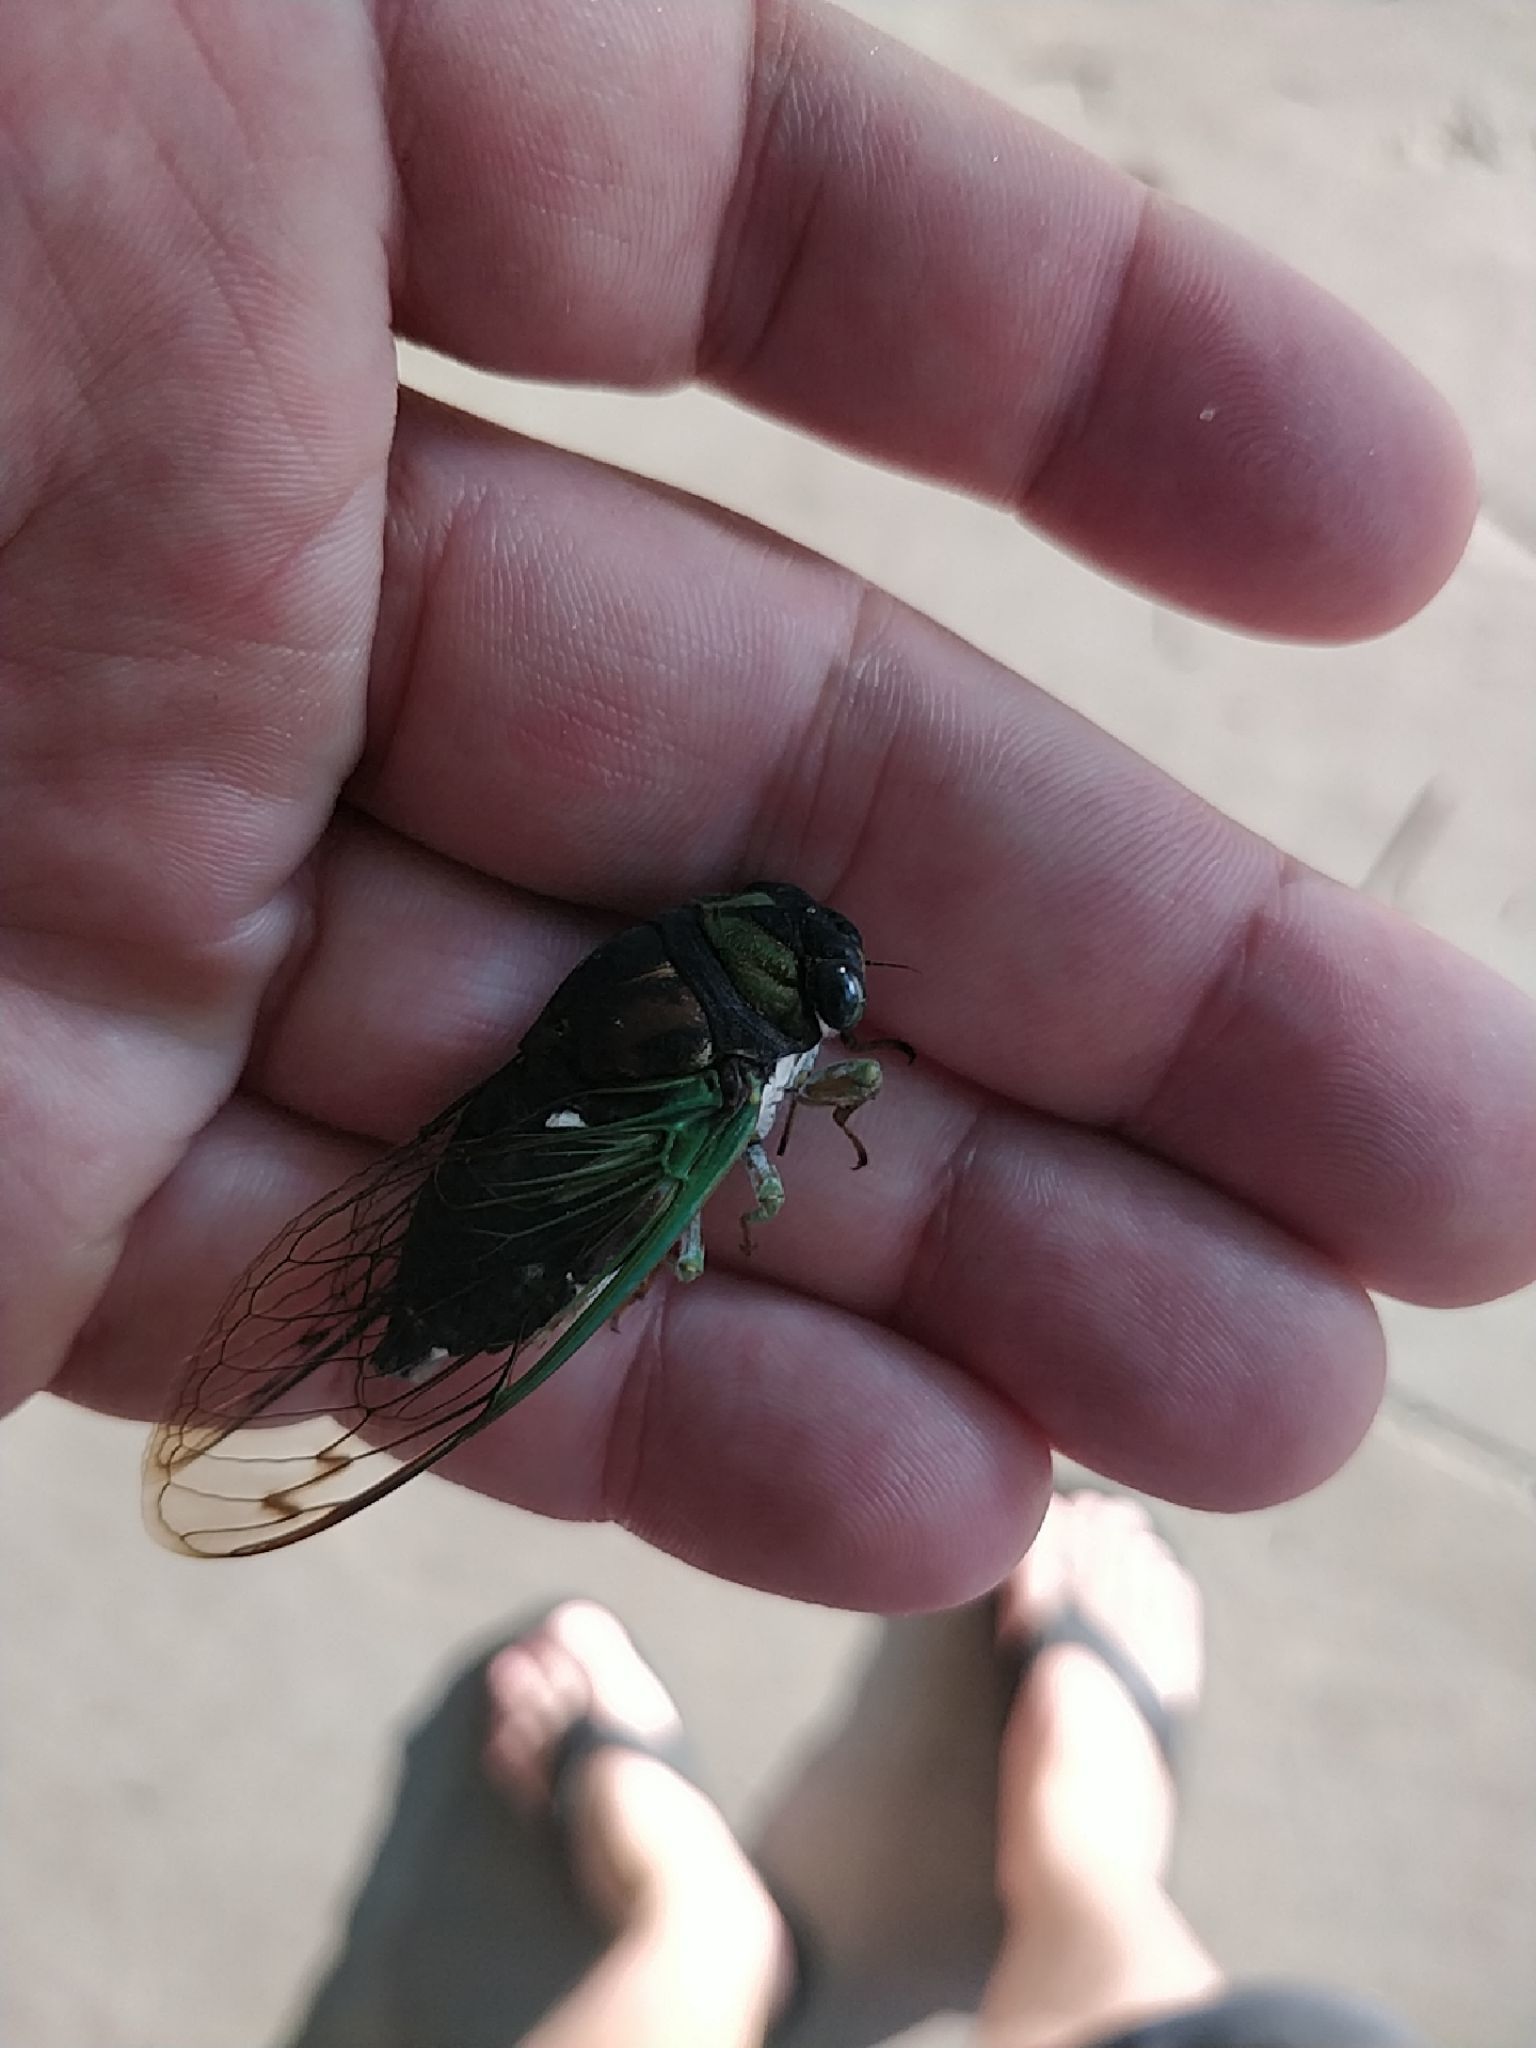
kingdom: Animalia
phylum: Arthropoda
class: Insecta
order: Hemiptera
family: Cicadidae
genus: Neotibicen
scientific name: Neotibicen tibicen
